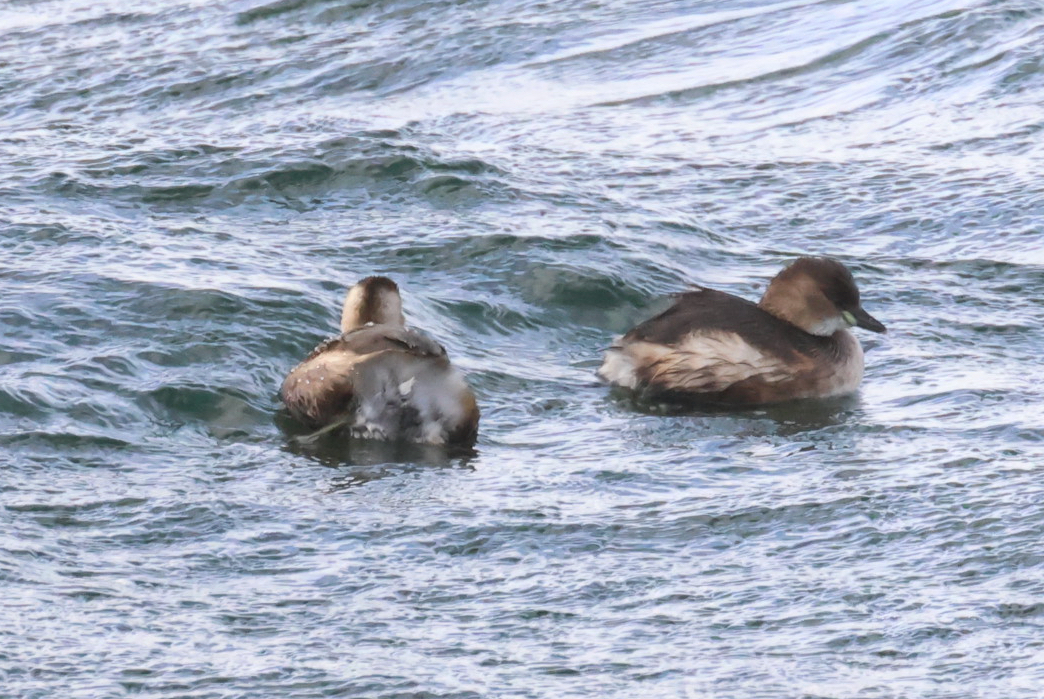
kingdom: Animalia
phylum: Chordata
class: Aves
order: Podicipediformes
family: Podicipedidae
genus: Tachybaptus
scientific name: Tachybaptus ruficollis
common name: Little grebe
